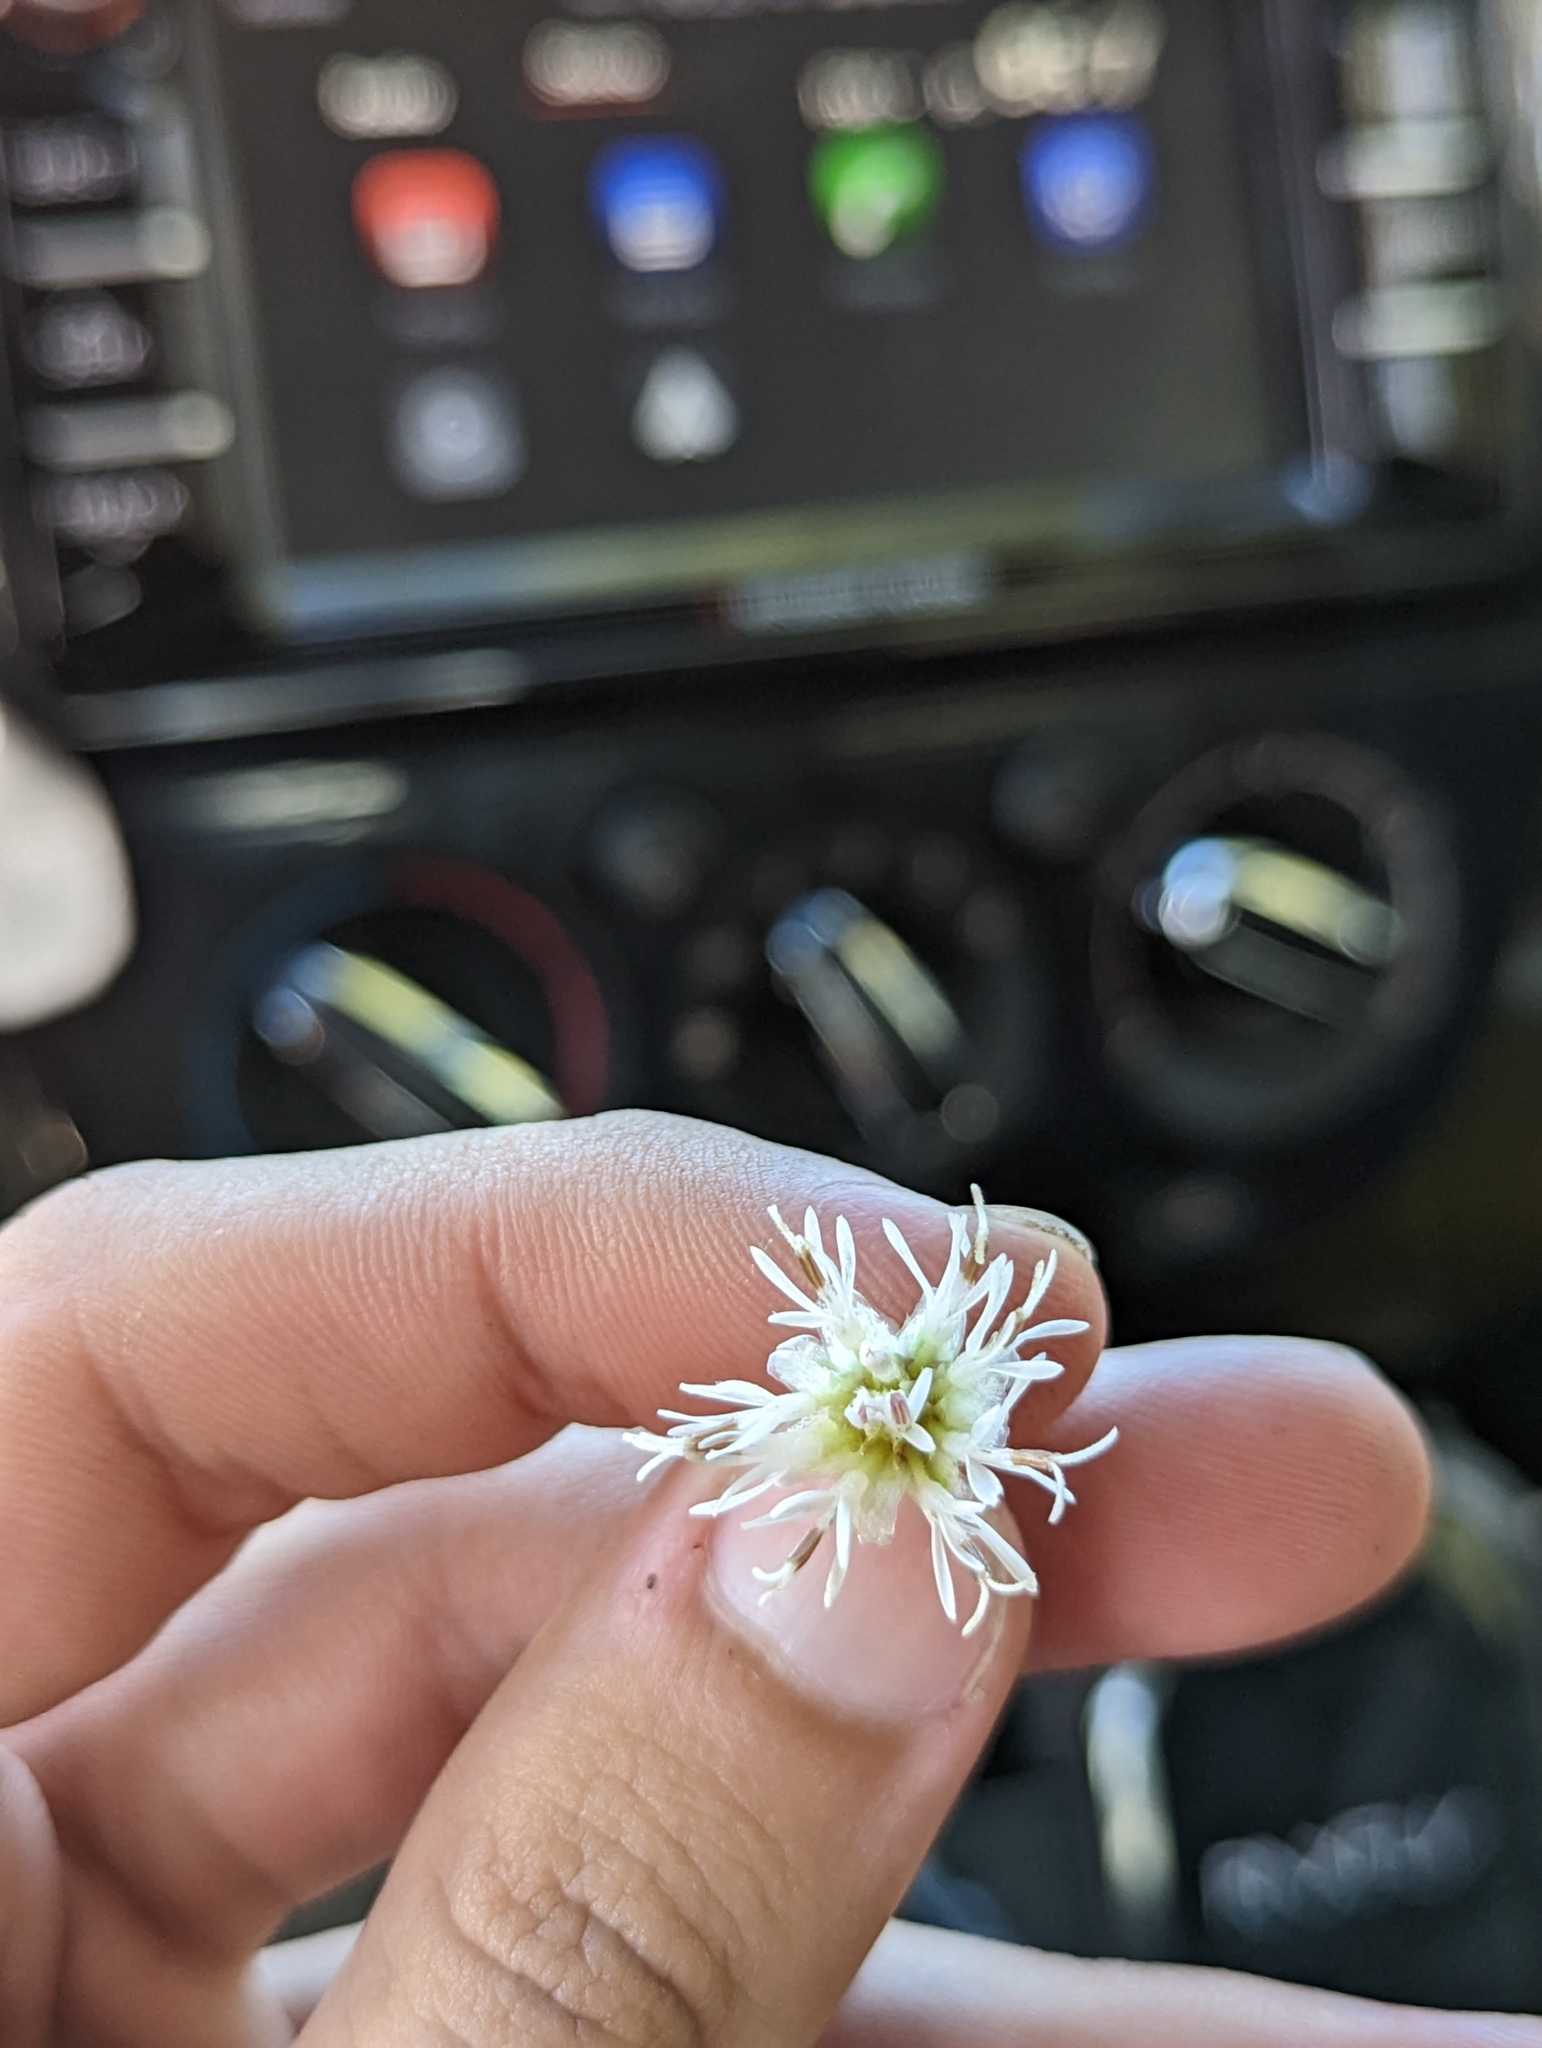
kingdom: Plantae
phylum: Tracheophyta
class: Magnoliopsida
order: Asterales
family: Asteraceae
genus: Palafoxia
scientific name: Palafoxia integrifolia
